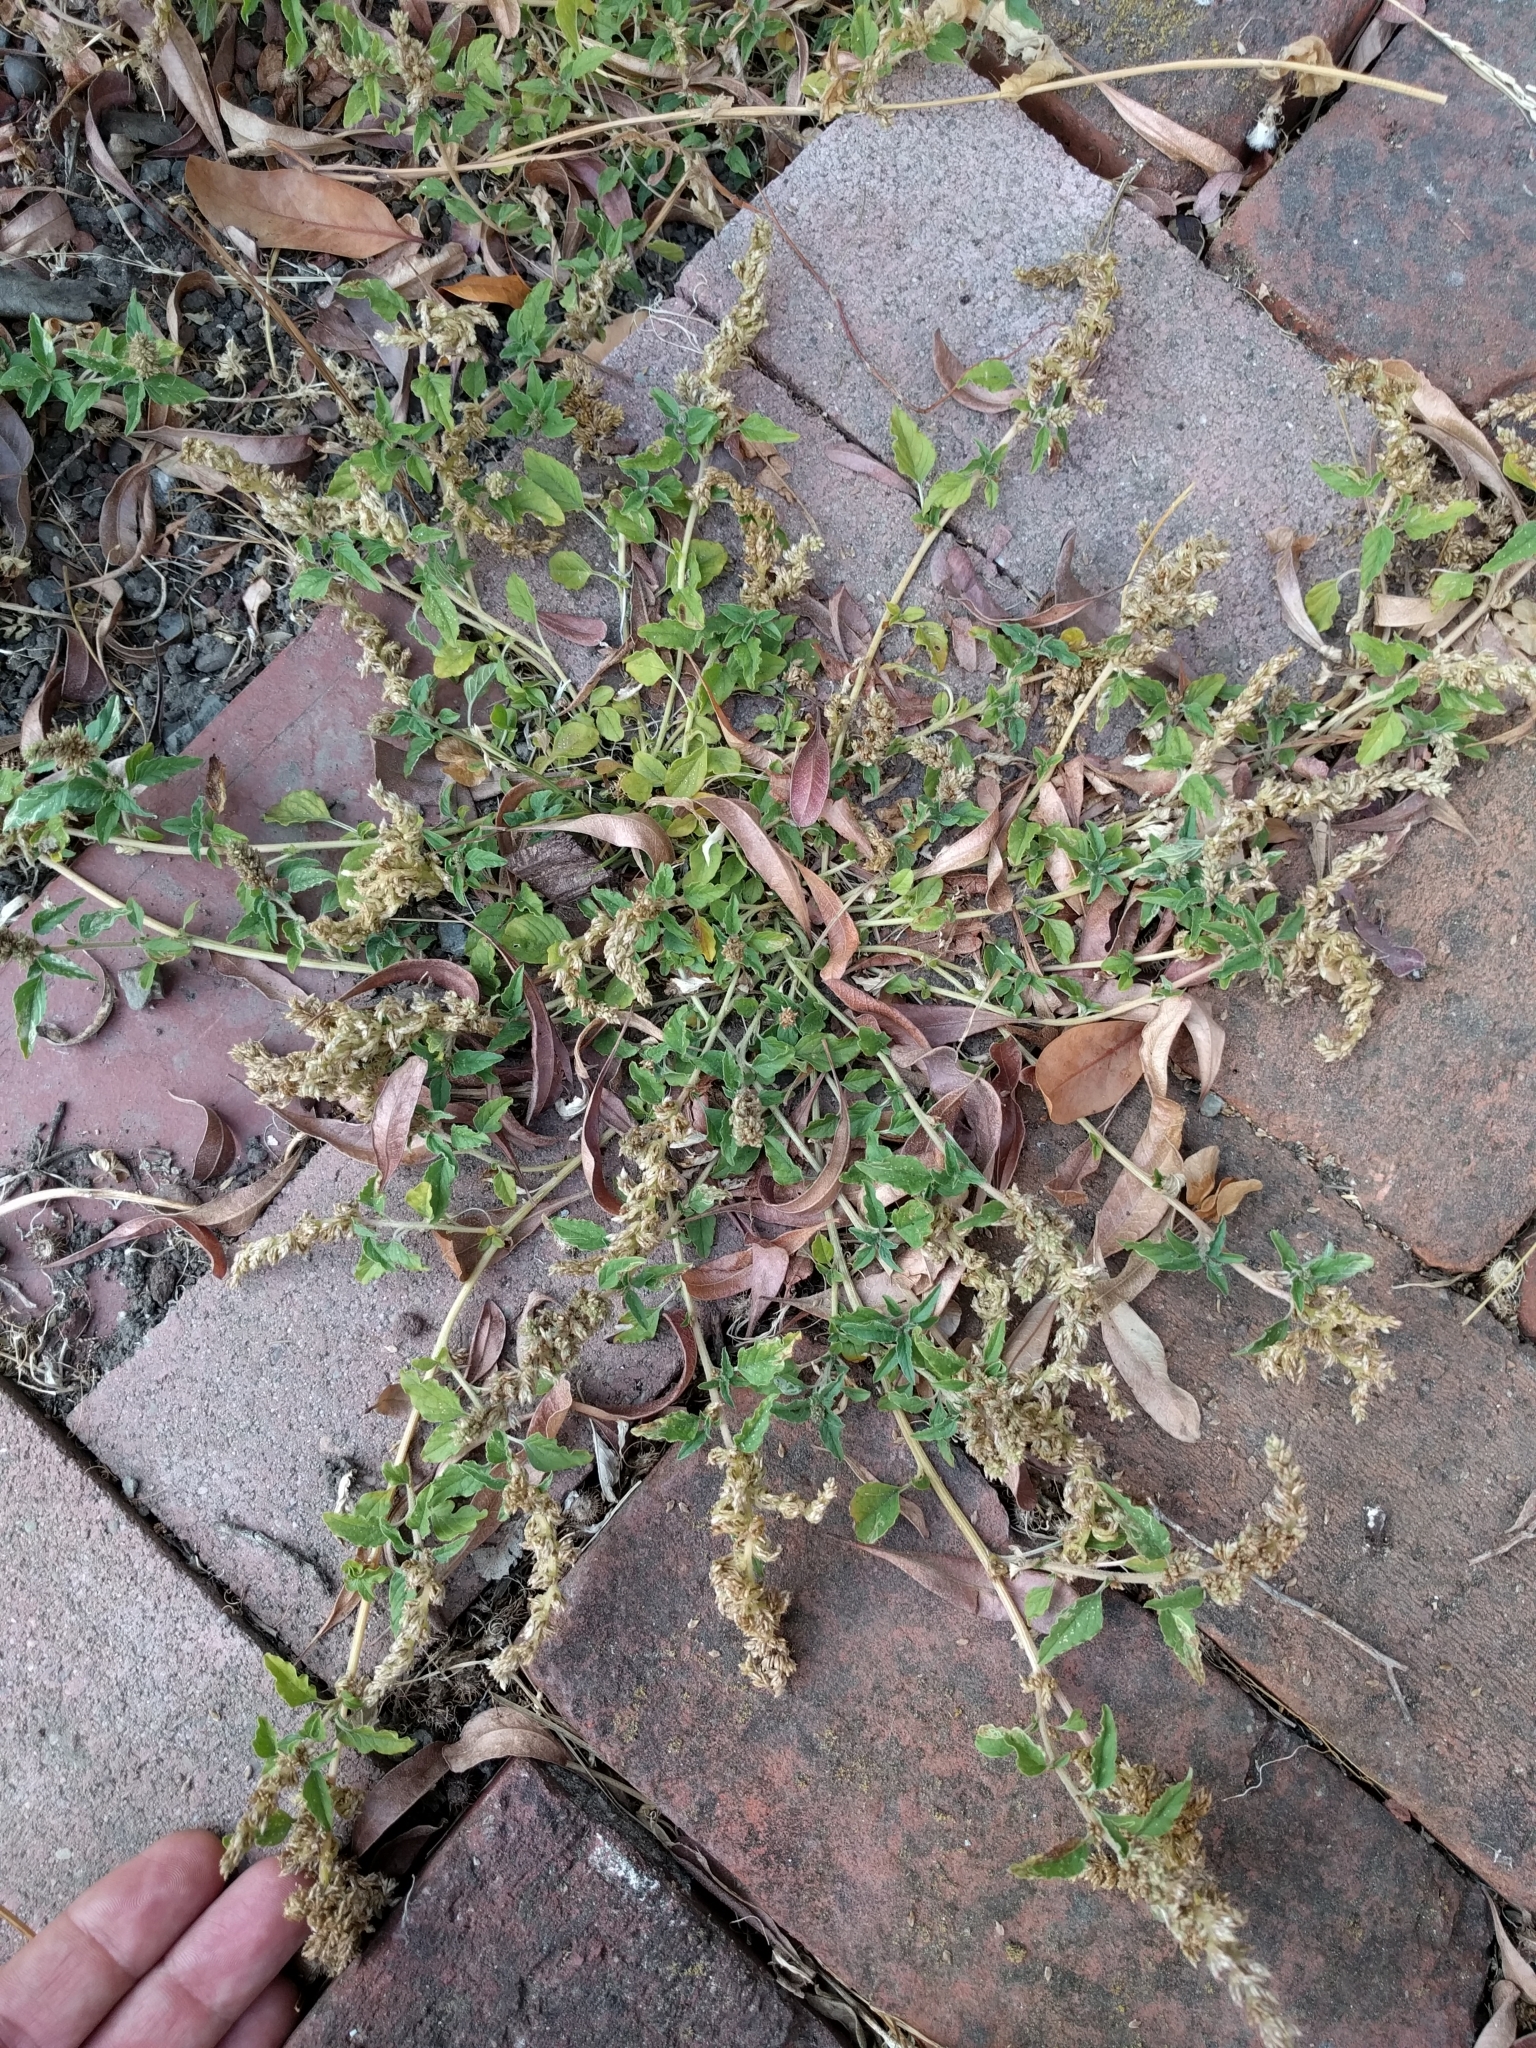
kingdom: Plantae
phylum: Tracheophyta
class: Magnoliopsida
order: Caryophyllales
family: Amaranthaceae
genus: Amaranthus
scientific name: Amaranthus deflexus
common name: Perennial pigweed
